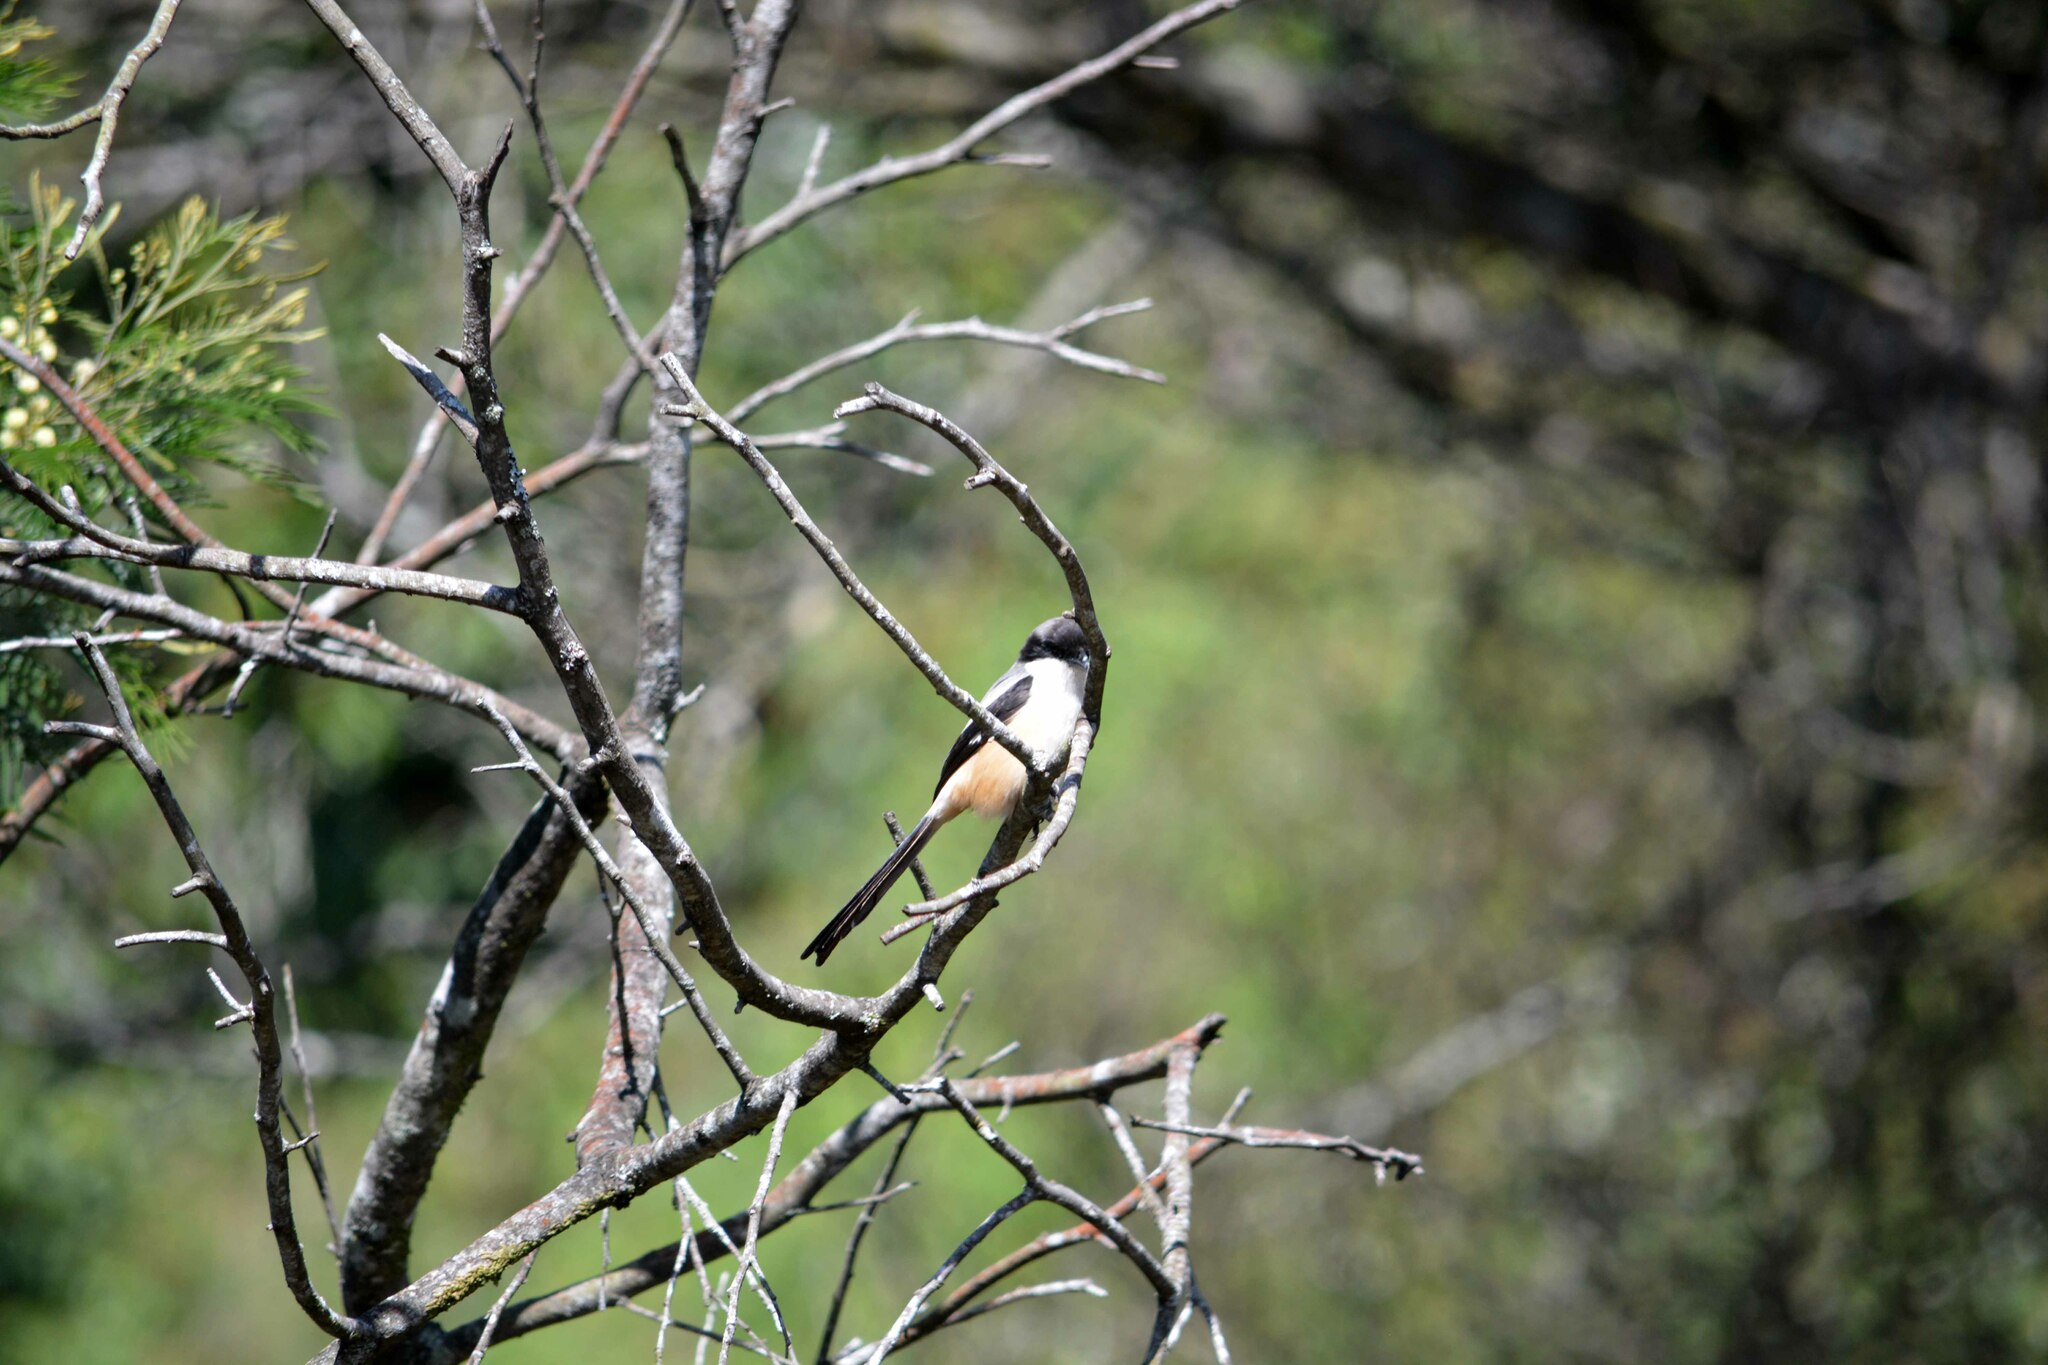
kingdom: Animalia
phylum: Chordata
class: Aves
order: Passeriformes
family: Laniidae
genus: Lanius
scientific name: Lanius schach
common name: Long-tailed shrike
